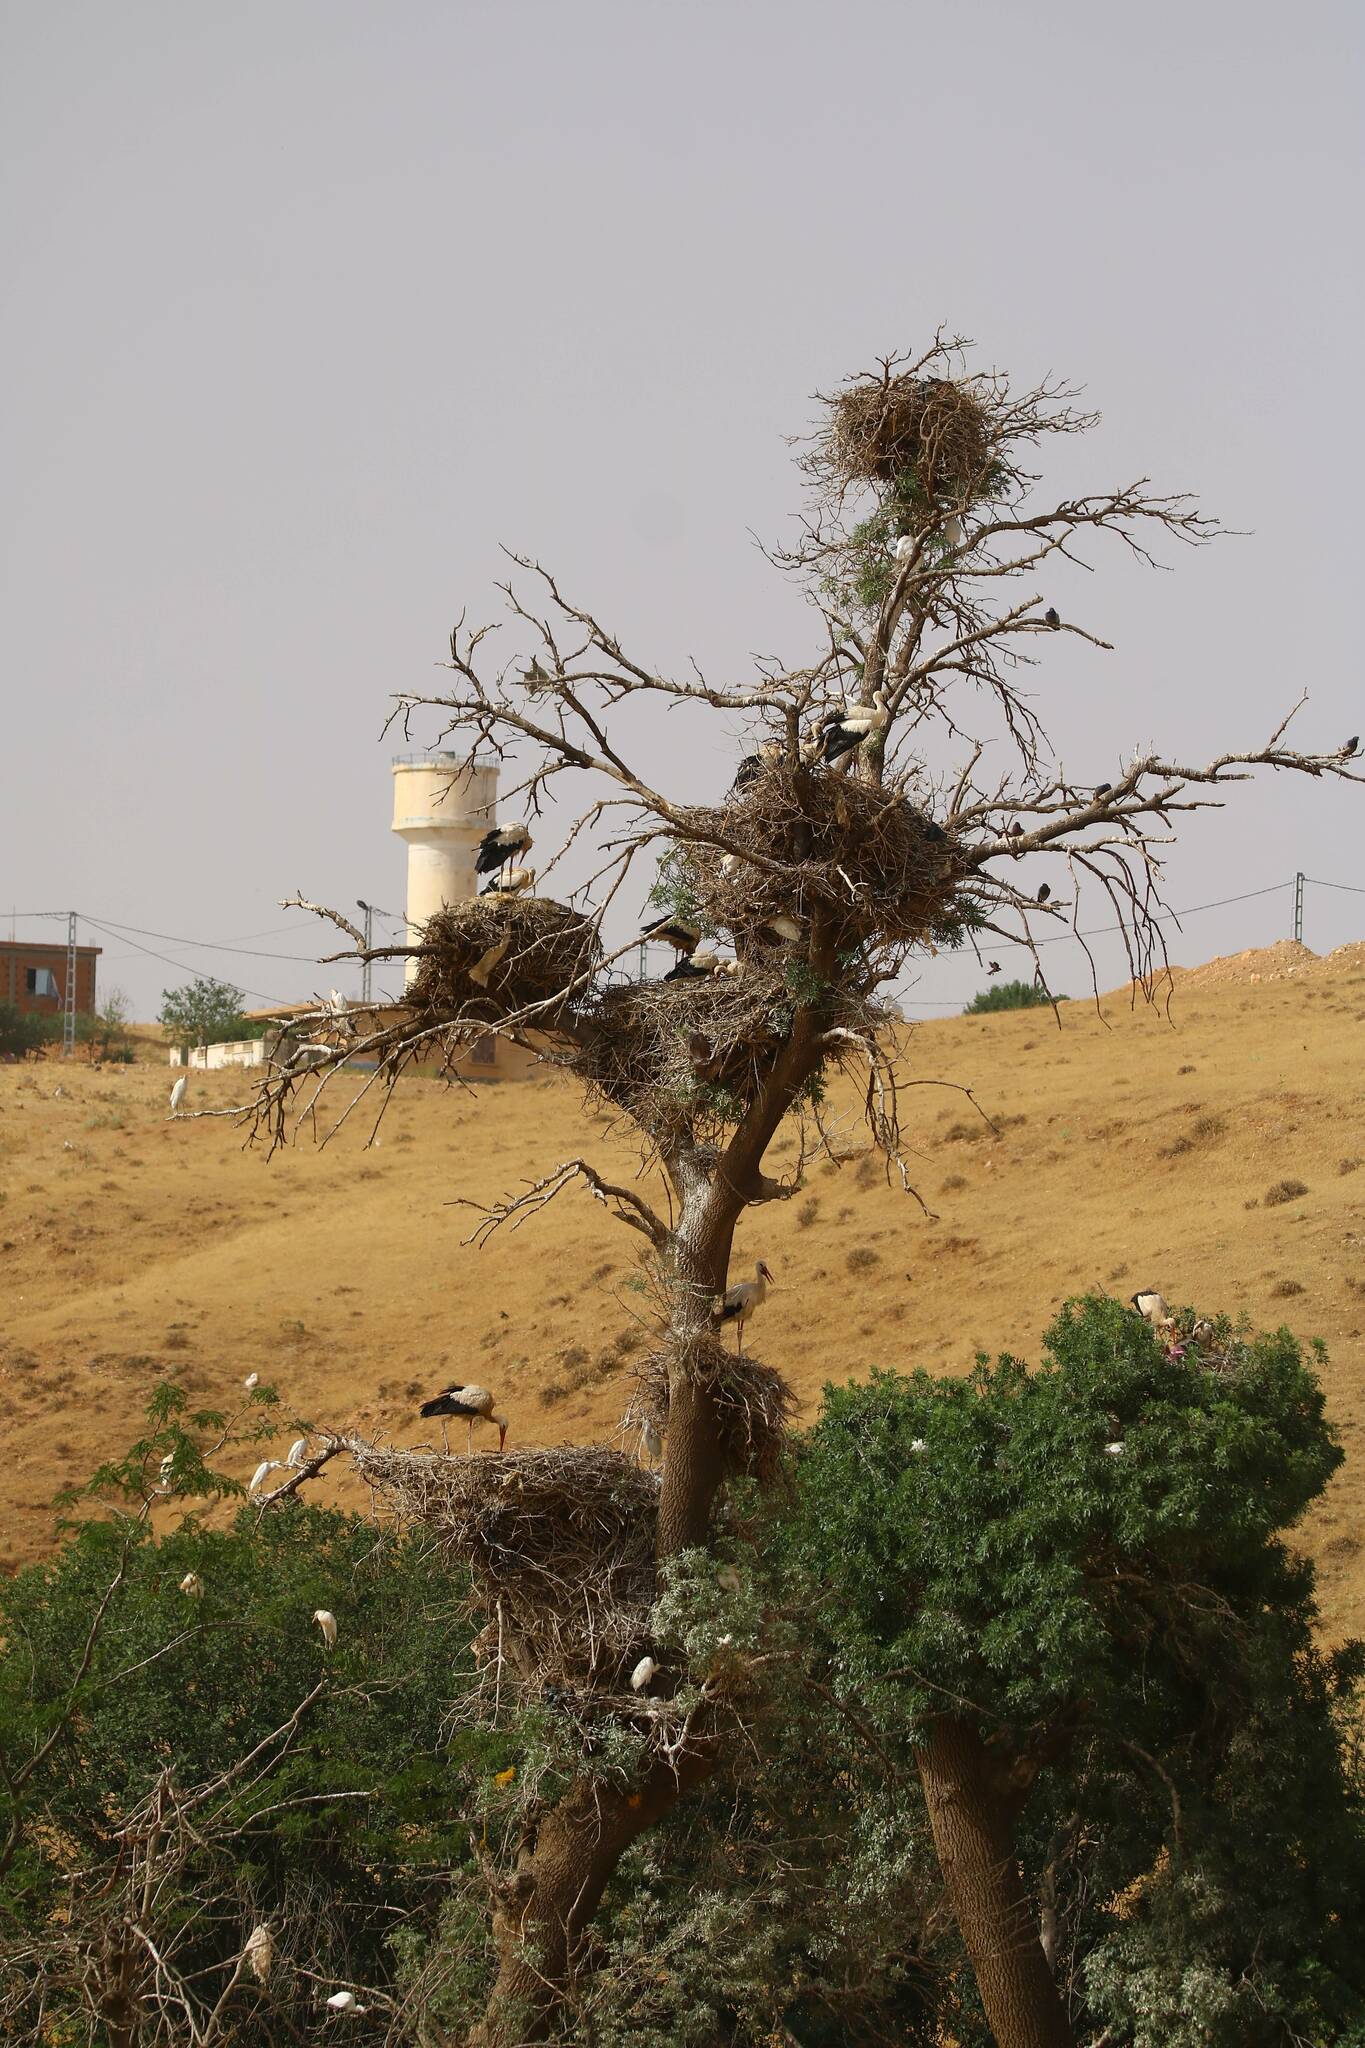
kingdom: Animalia
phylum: Chordata
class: Aves
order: Ciconiiformes
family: Ciconiidae
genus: Ciconia
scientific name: Ciconia ciconia
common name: White stork
